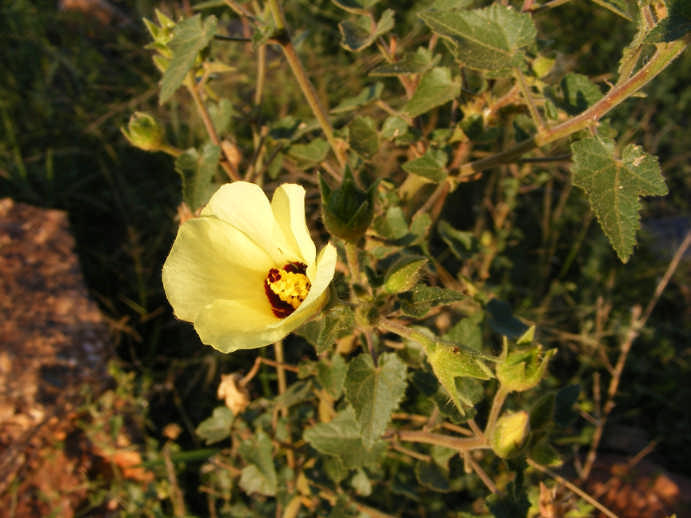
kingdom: Plantae
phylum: Tracheophyta
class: Magnoliopsida
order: Malvales
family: Malvaceae
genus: Hibiscus
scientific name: Hibiscus engleri
